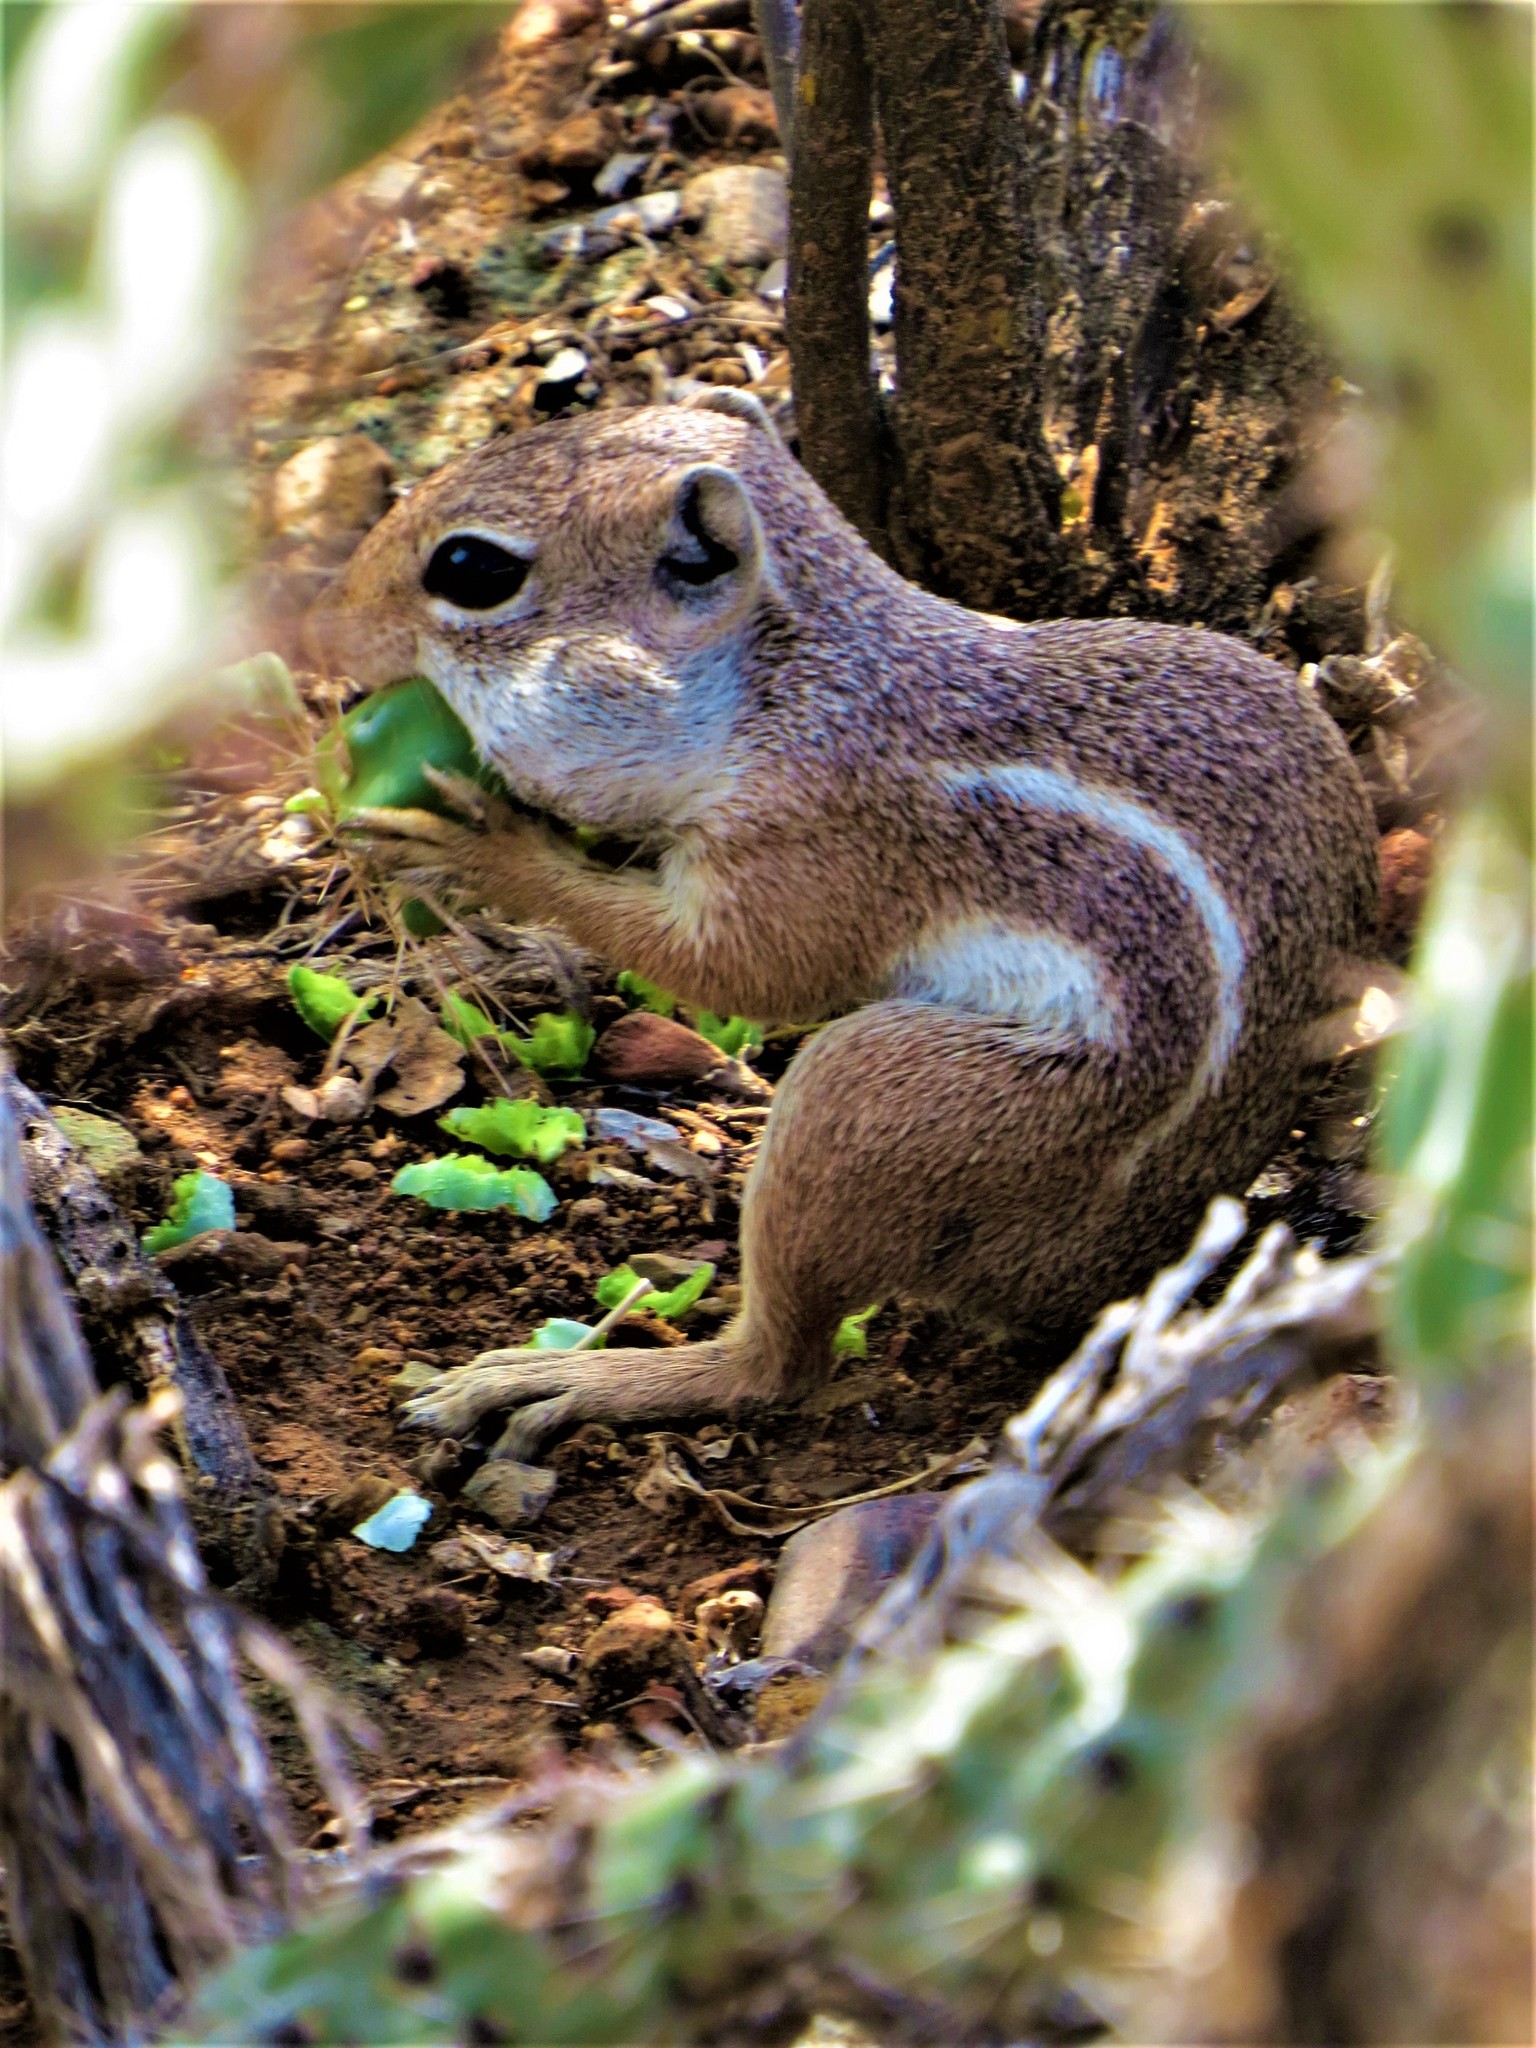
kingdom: Animalia
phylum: Chordata
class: Mammalia
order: Rodentia
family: Sciuridae
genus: Ammospermophilus
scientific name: Ammospermophilus harrisii
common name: Harris's antelope squirrel
